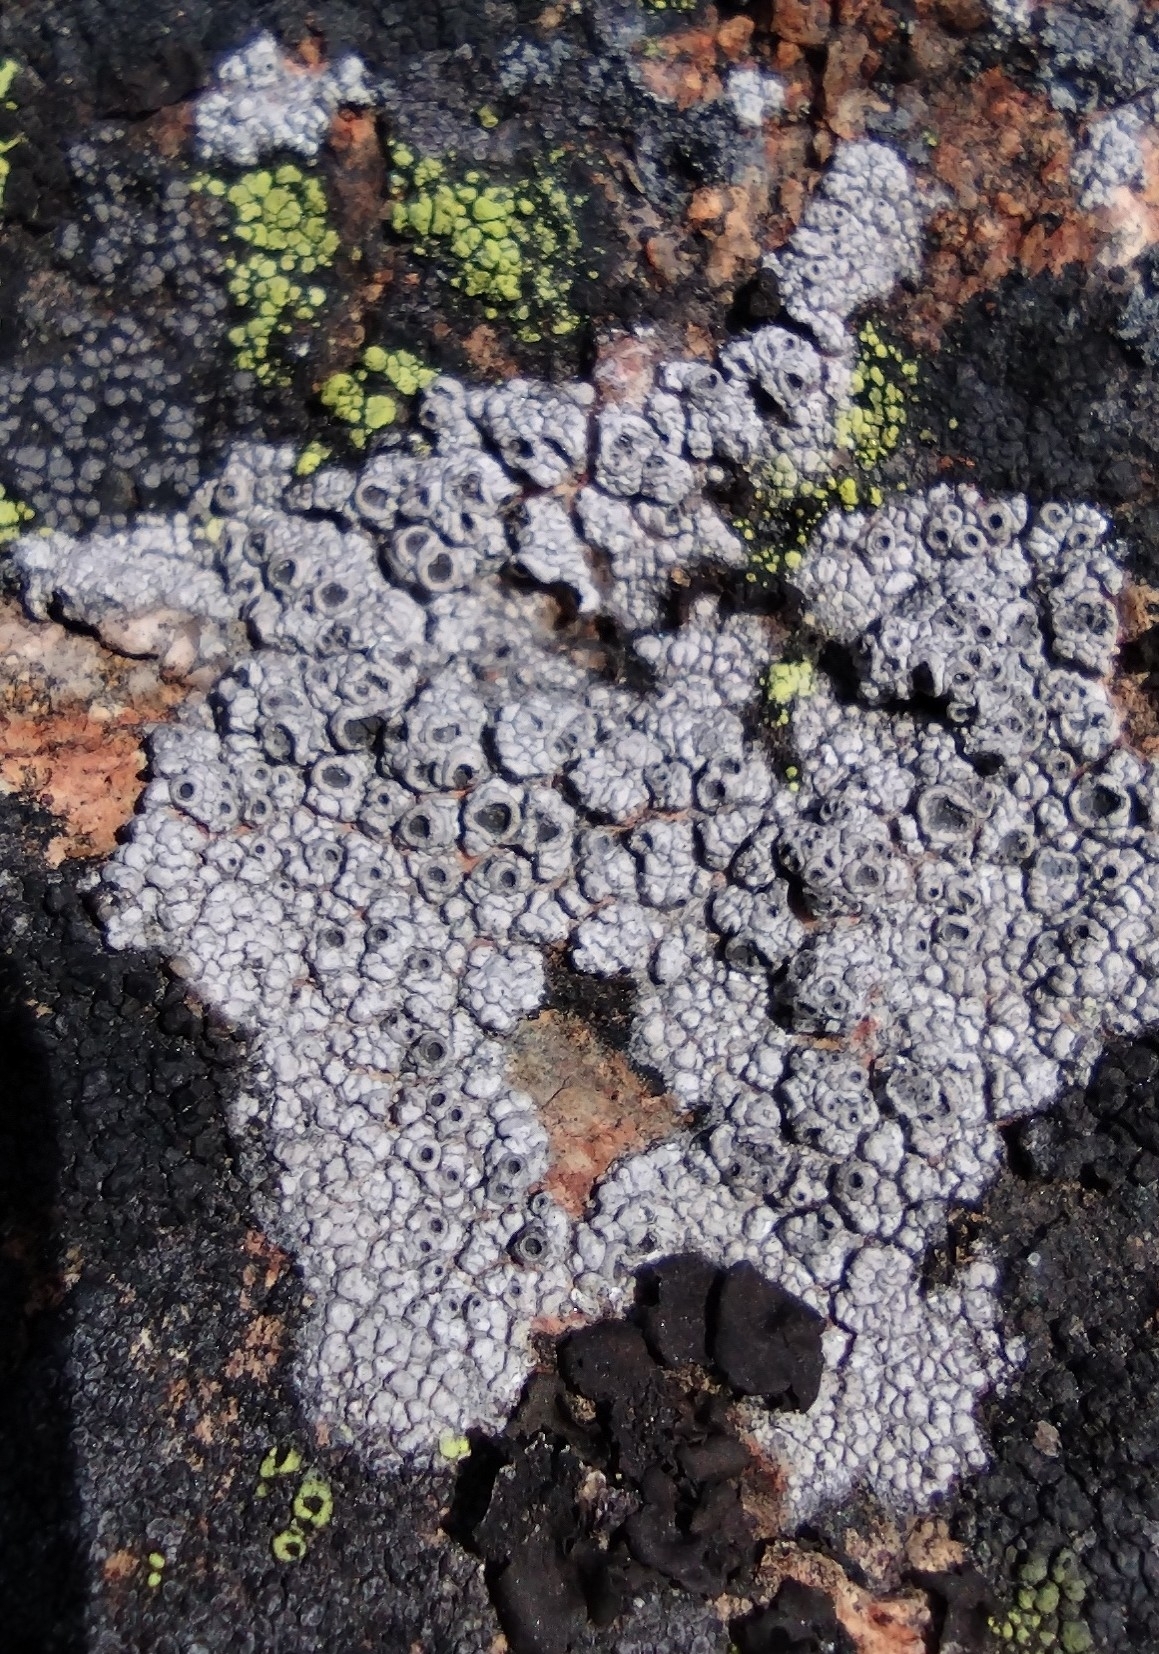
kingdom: Fungi
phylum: Ascomycota
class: Lecanoromycetes
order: Ostropales
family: Graphidaceae
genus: Diploschistes
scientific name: Diploschistes scruposus
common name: Crater lichen
